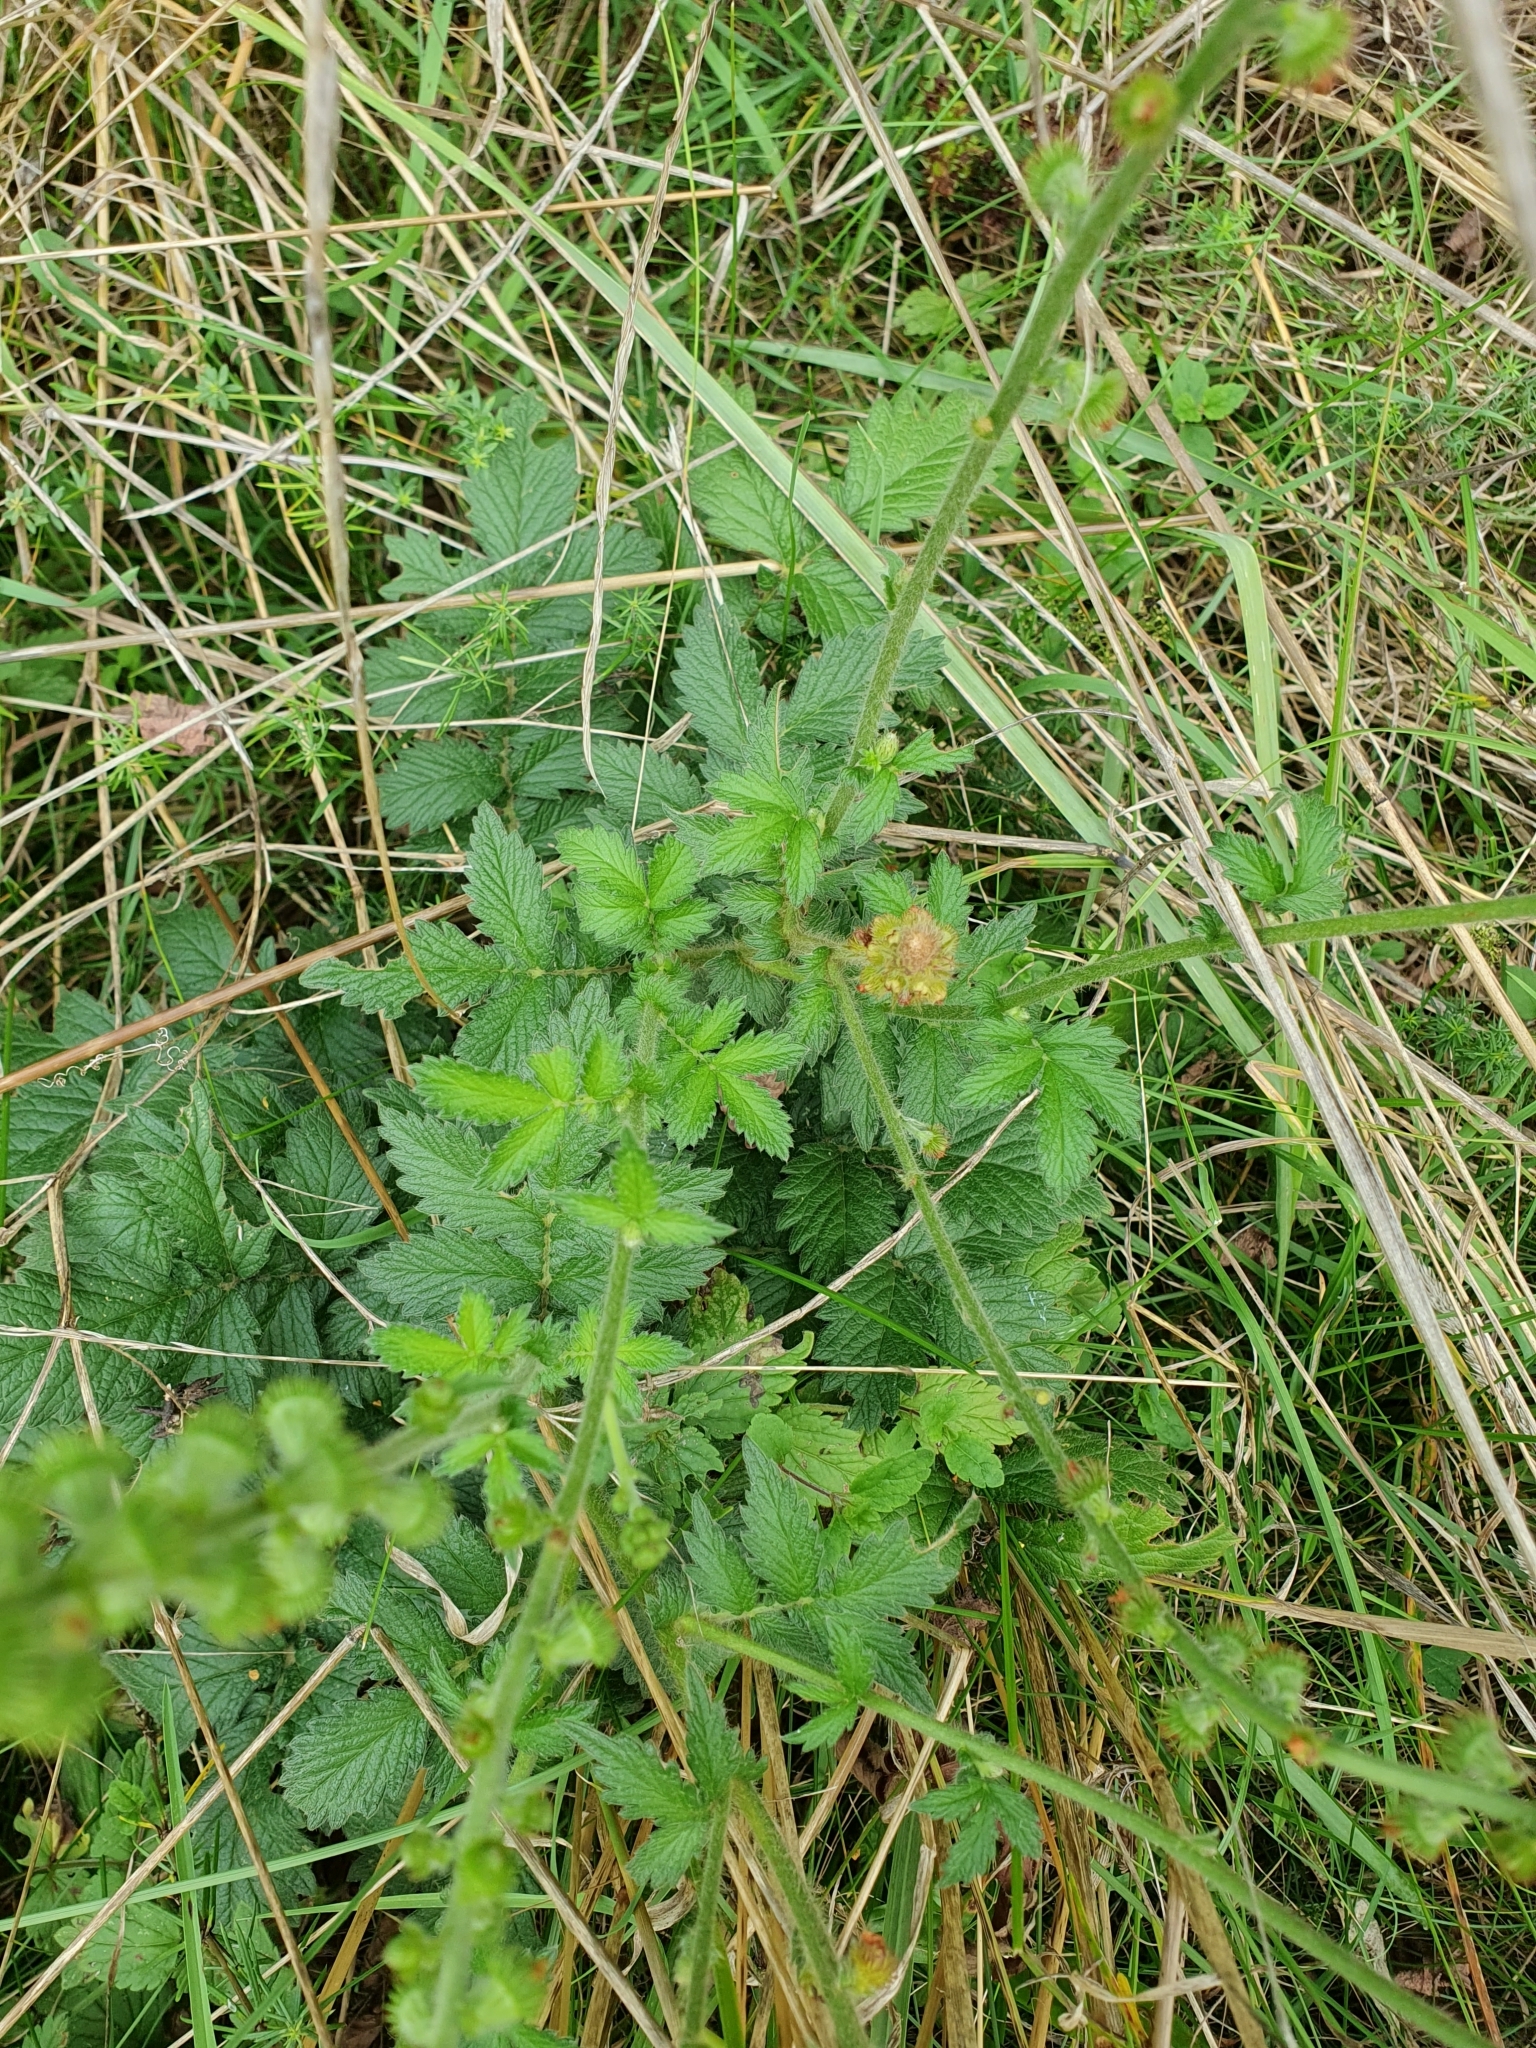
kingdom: Plantae
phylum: Tracheophyta
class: Magnoliopsida
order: Rosales
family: Rosaceae
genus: Agrimonia
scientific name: Agrimonia eupatoria
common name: Agrimony
